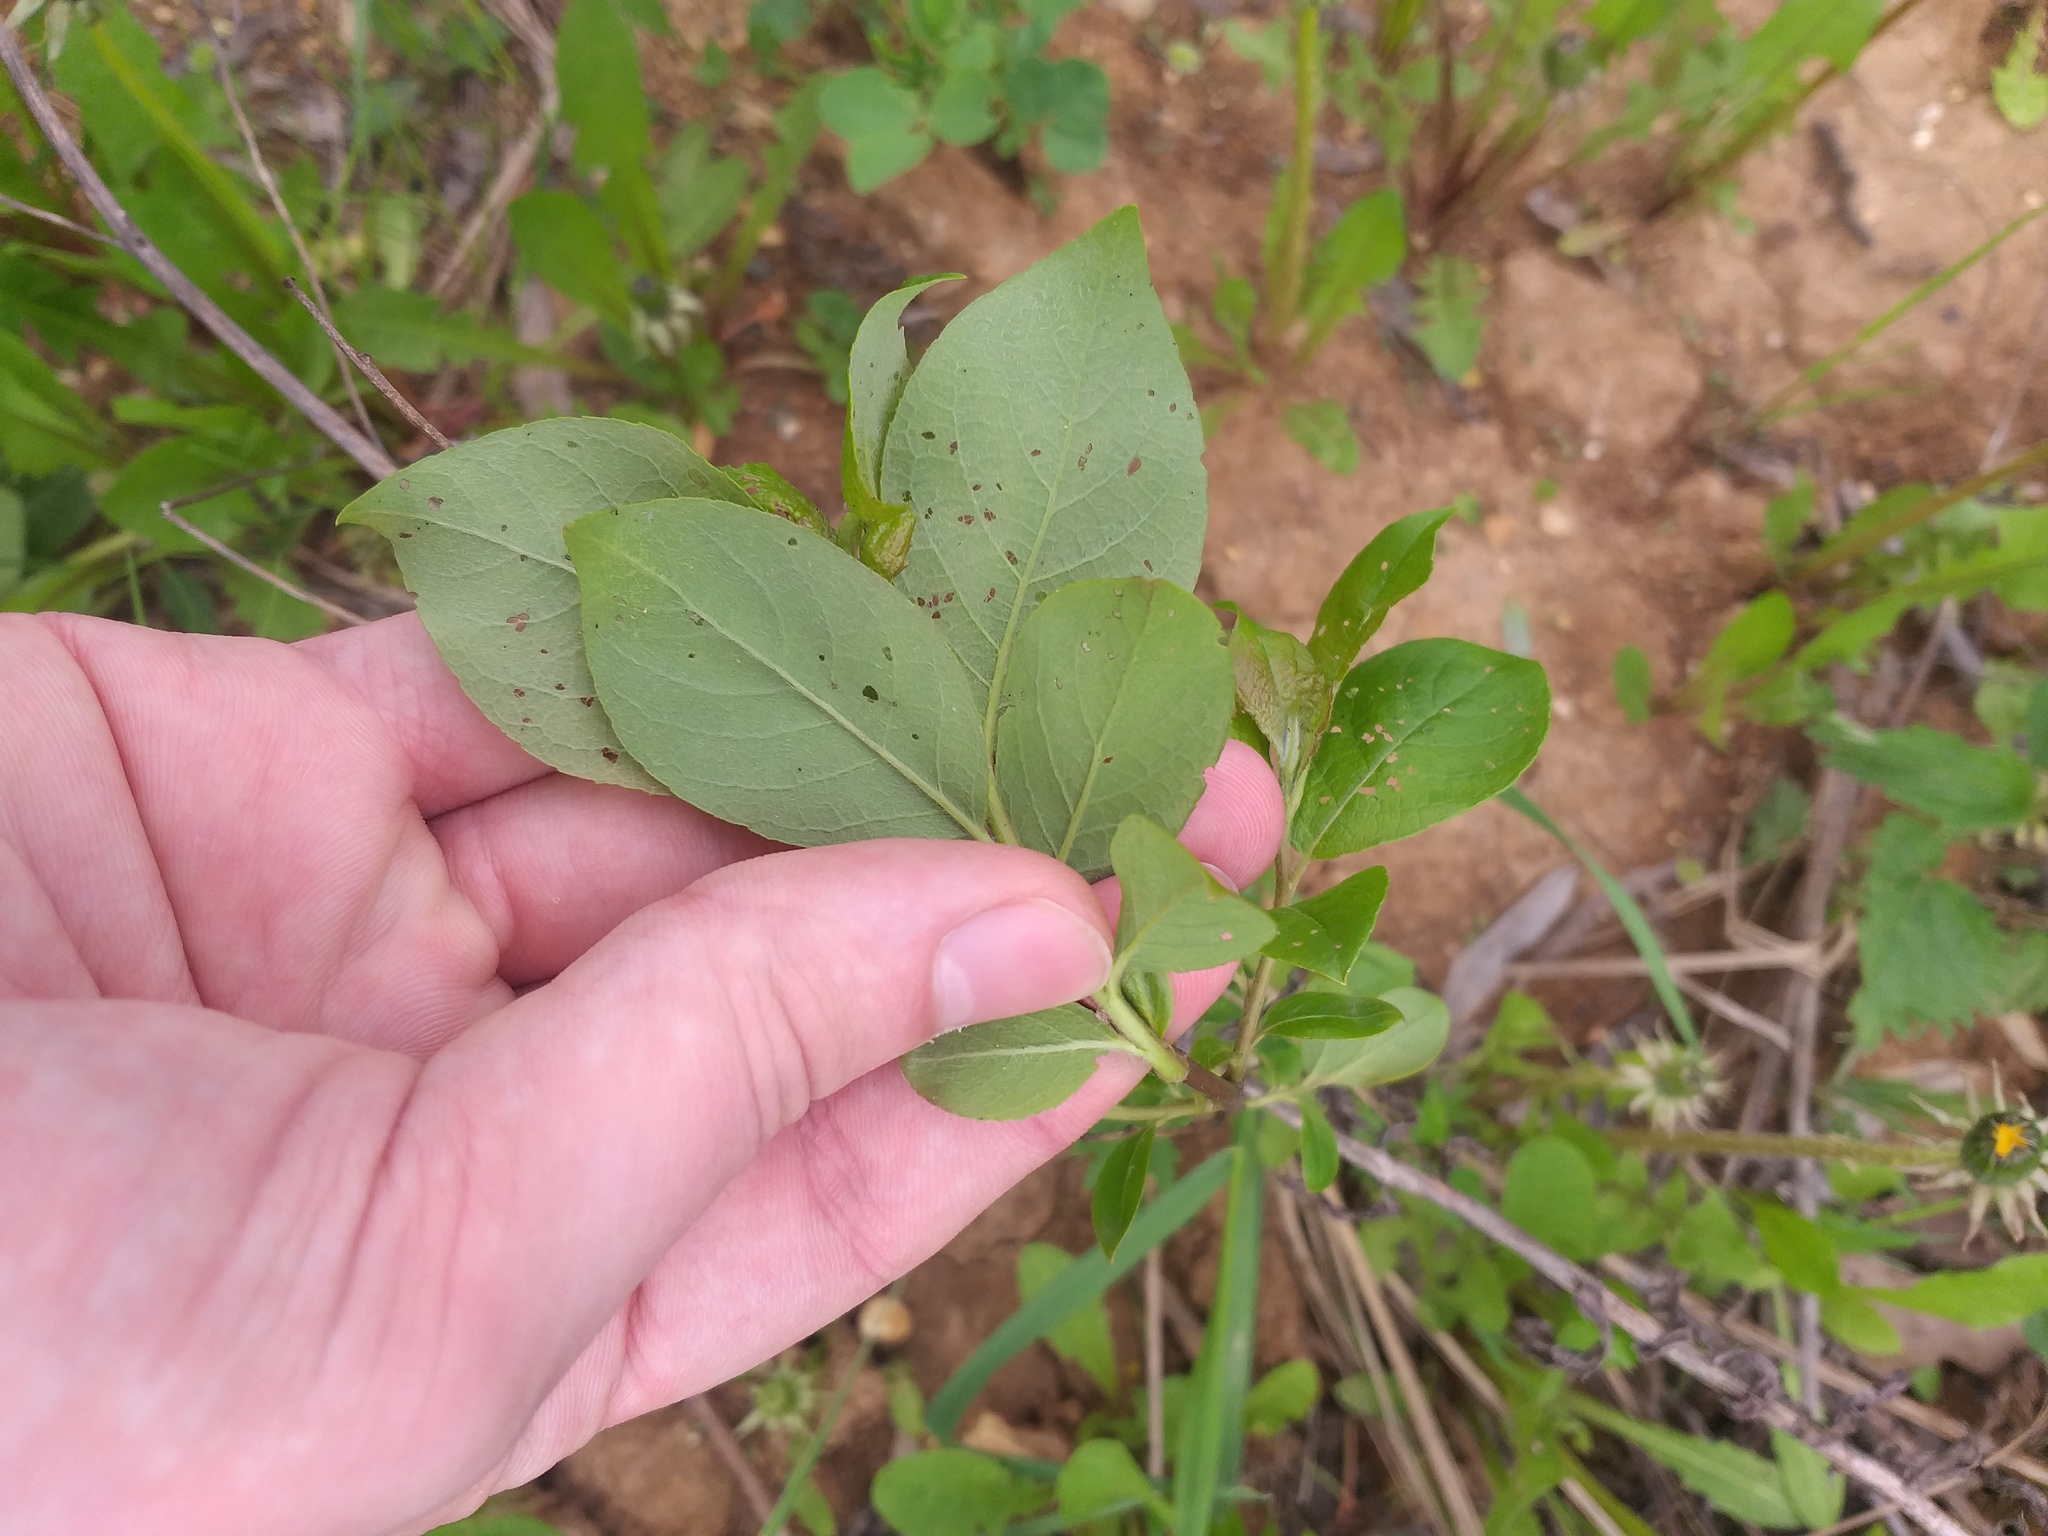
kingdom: Plantae
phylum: Tracheophyta
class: Magnoliopsida
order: Malpighiales
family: Salicaceae
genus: Salix
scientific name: Salix myrsinifolia
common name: Dark-leaved willow
